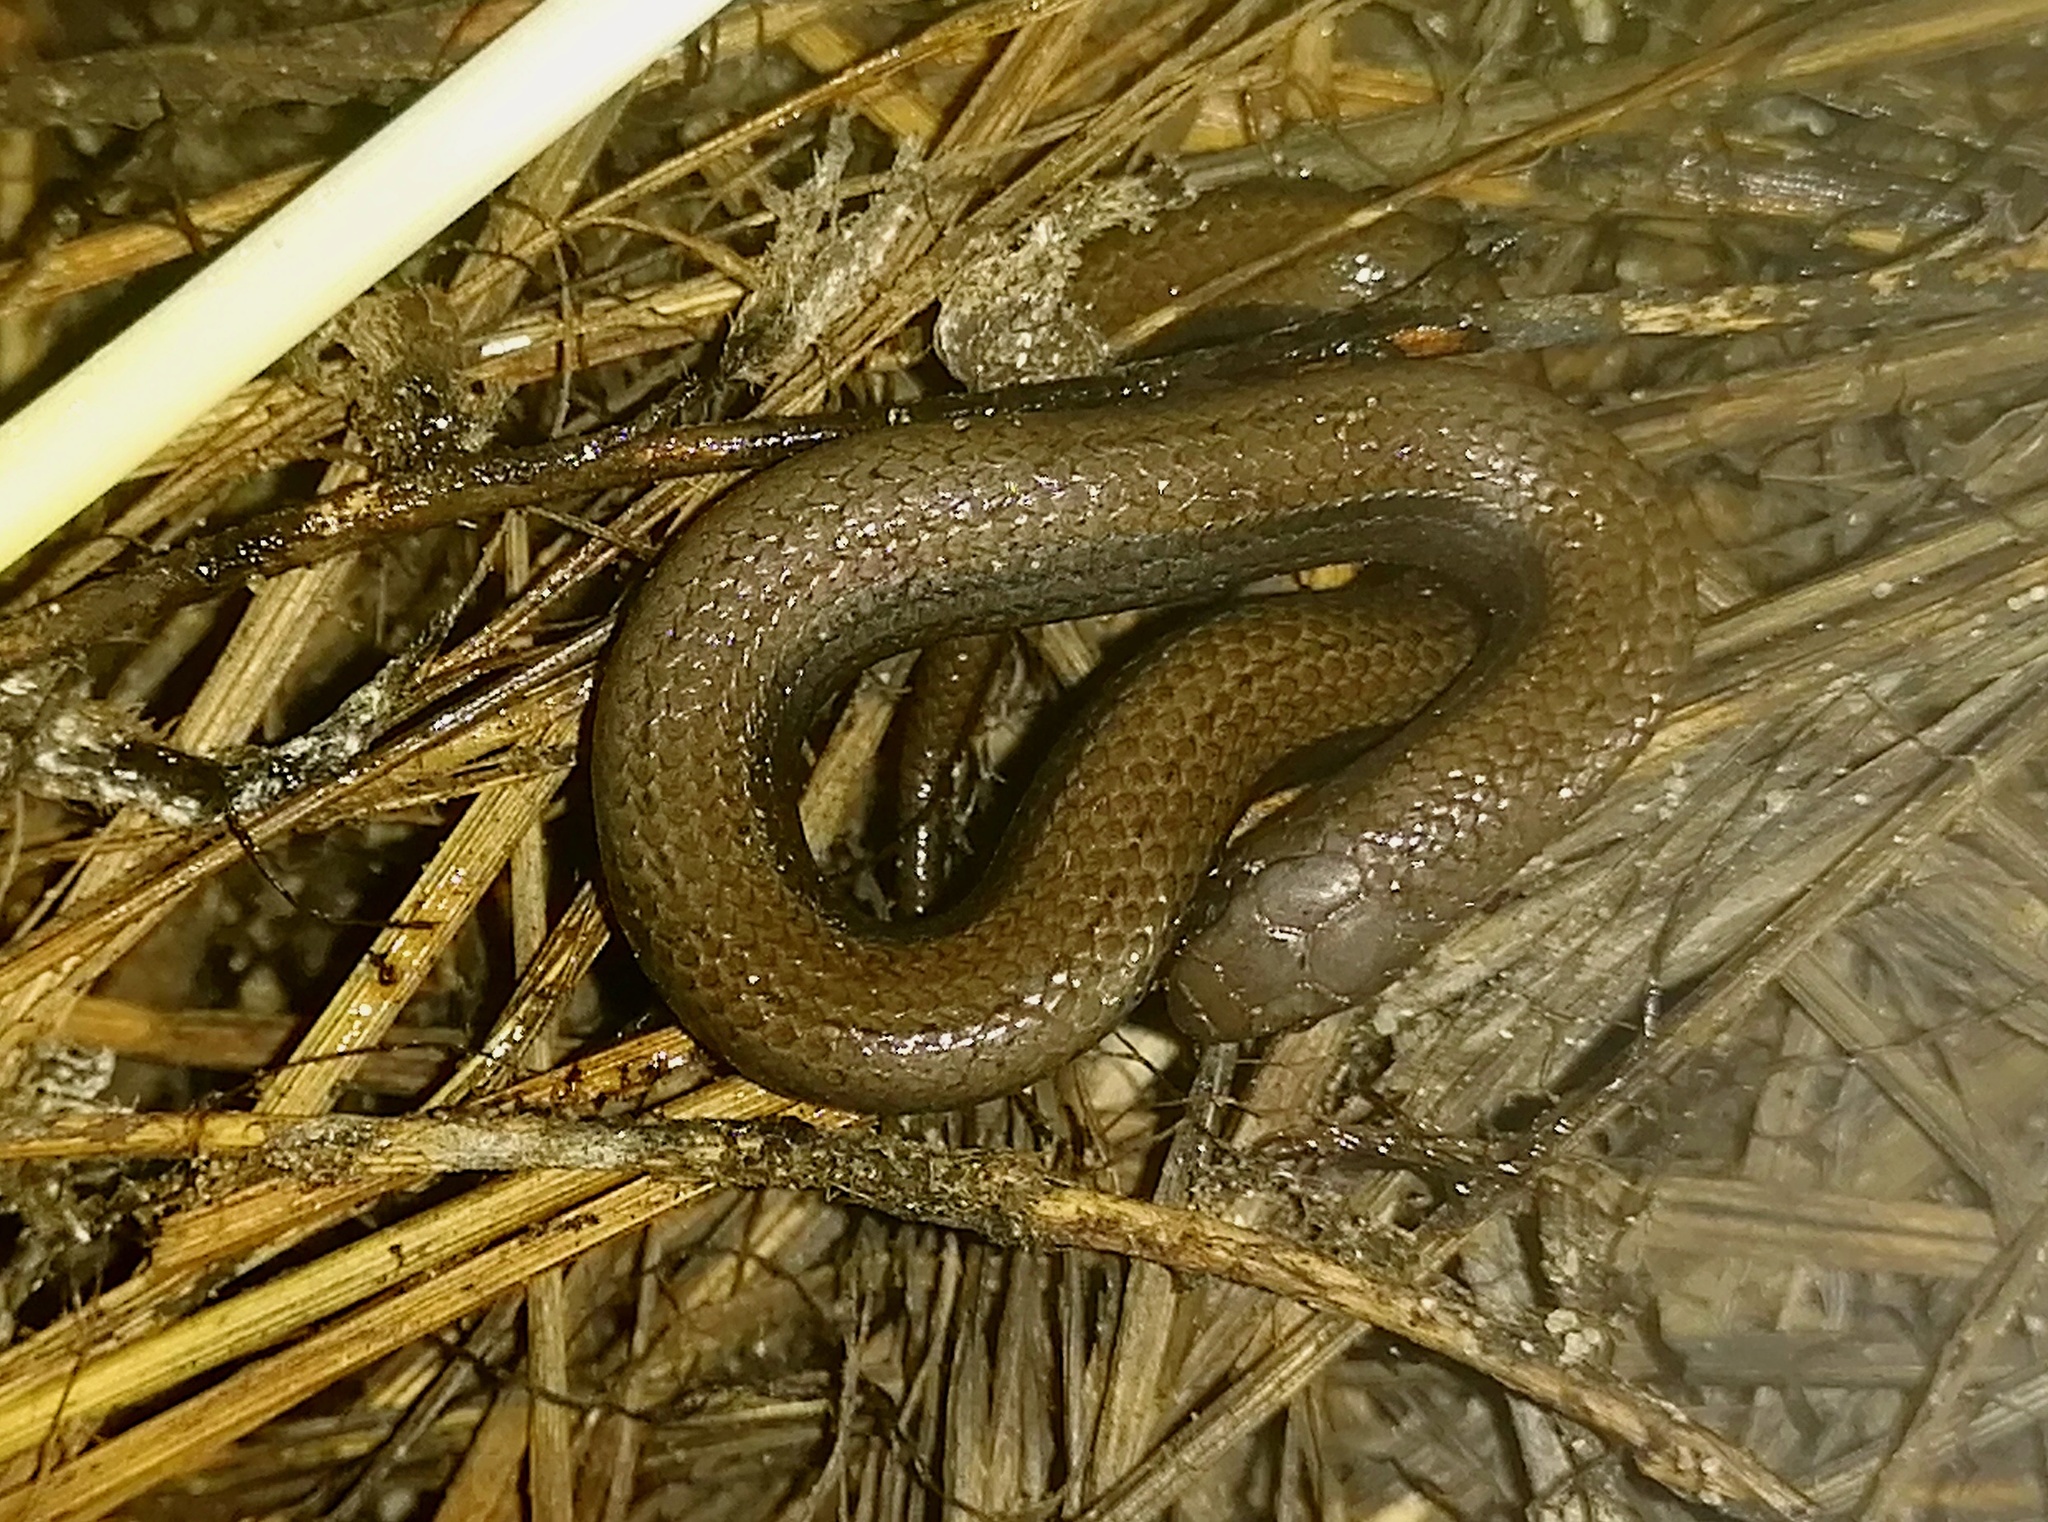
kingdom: Animalia
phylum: Chordata
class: Squamata
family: Pseudoxyrhophiidae
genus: Duberria
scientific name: Duberria lutrix
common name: Common slug eater
